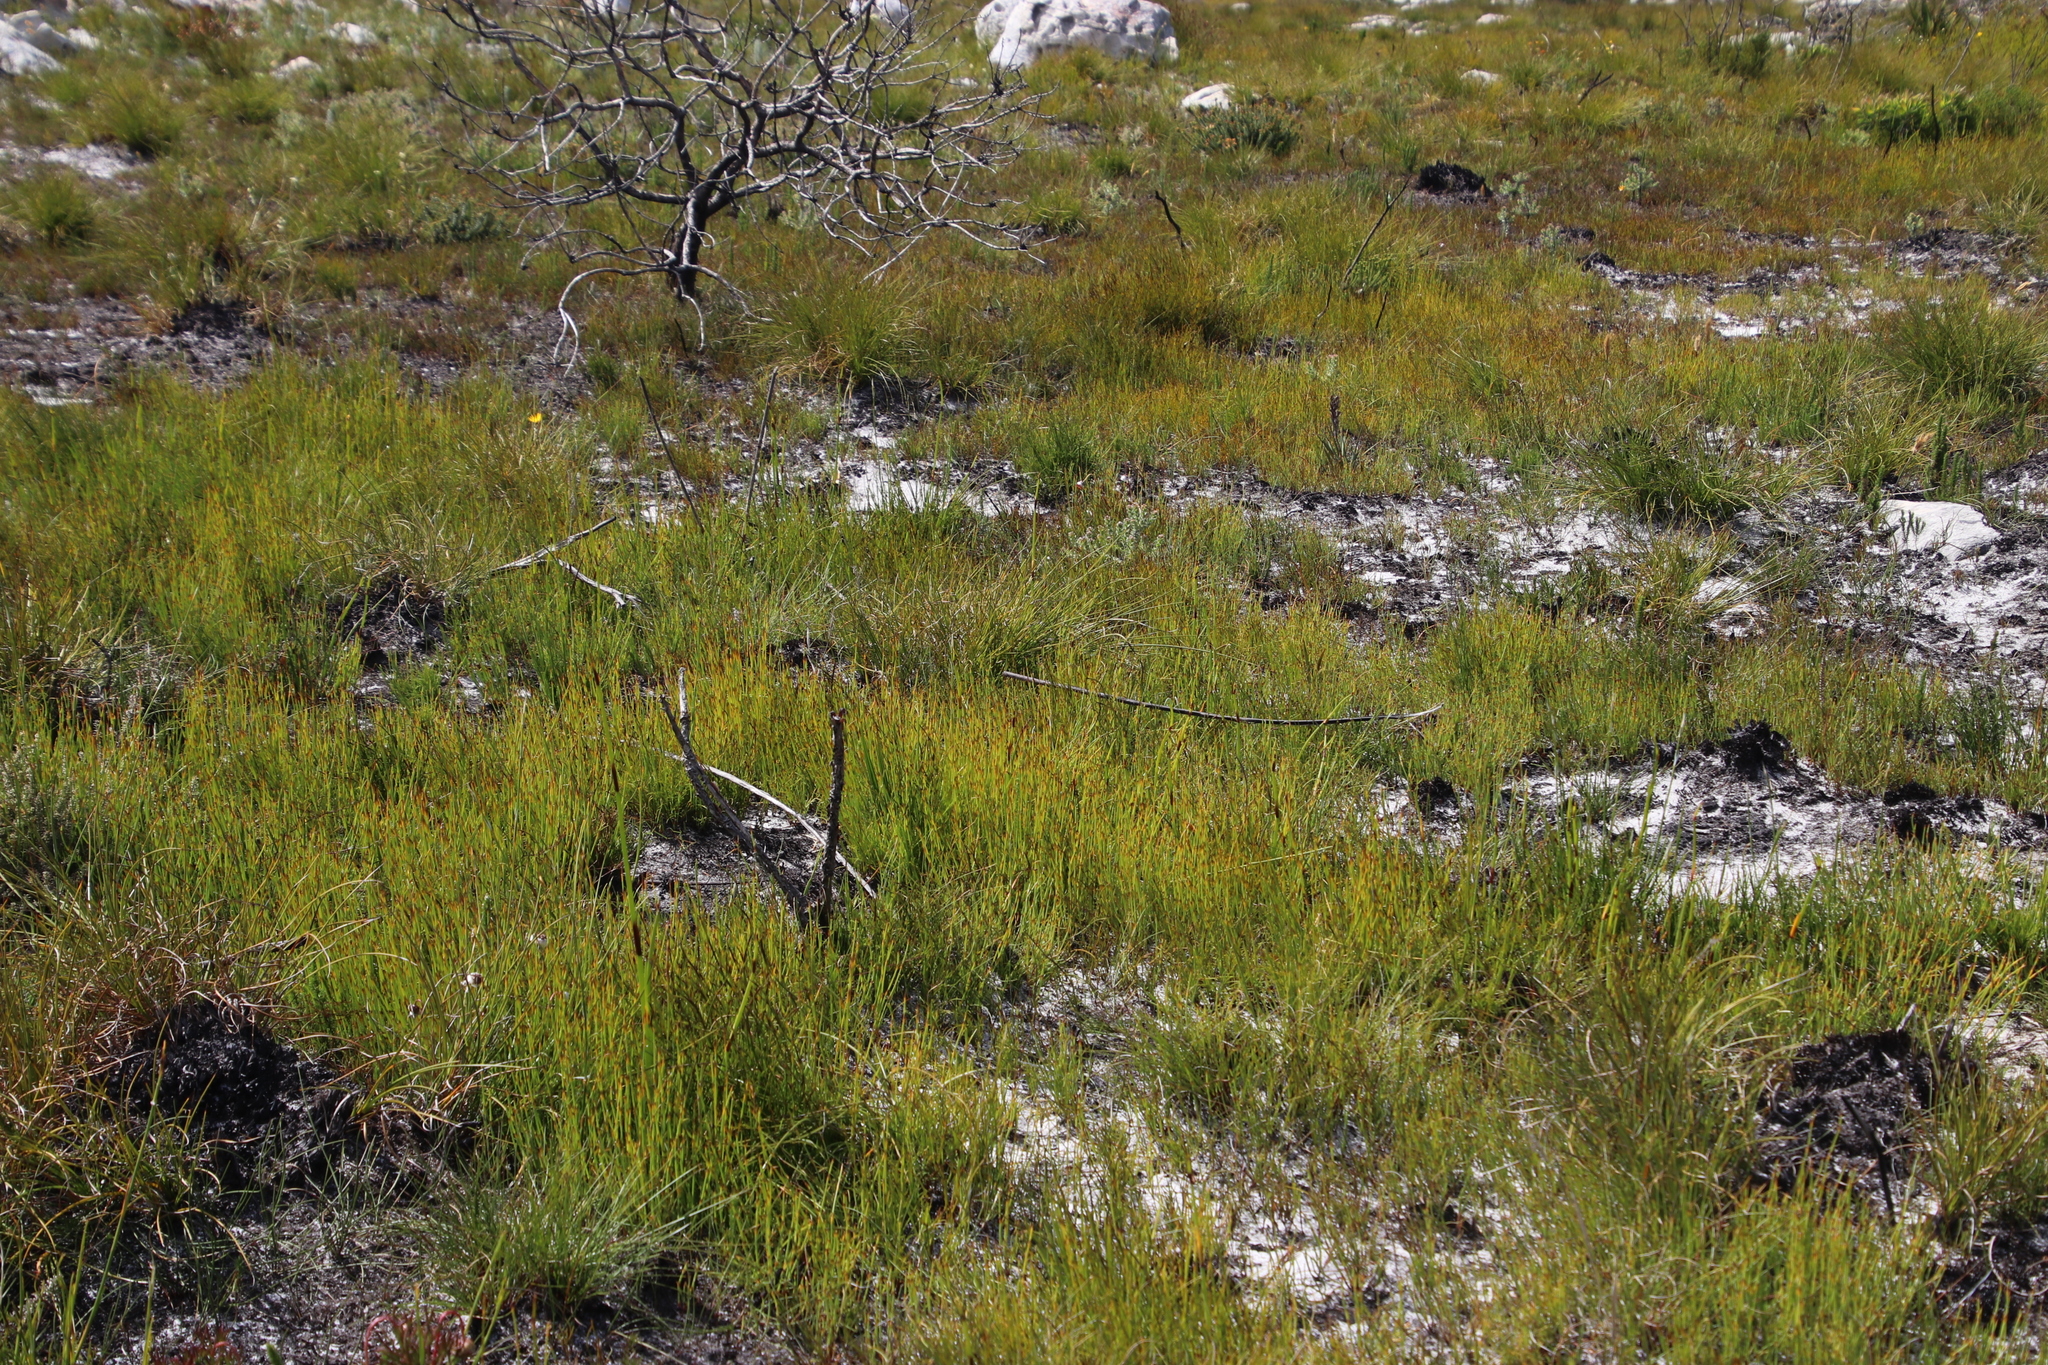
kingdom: Plantae
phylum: Tracheophyta
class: Liliopsida
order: Poales
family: Restionaceae
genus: Elegia
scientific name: Elegia vaginulata
